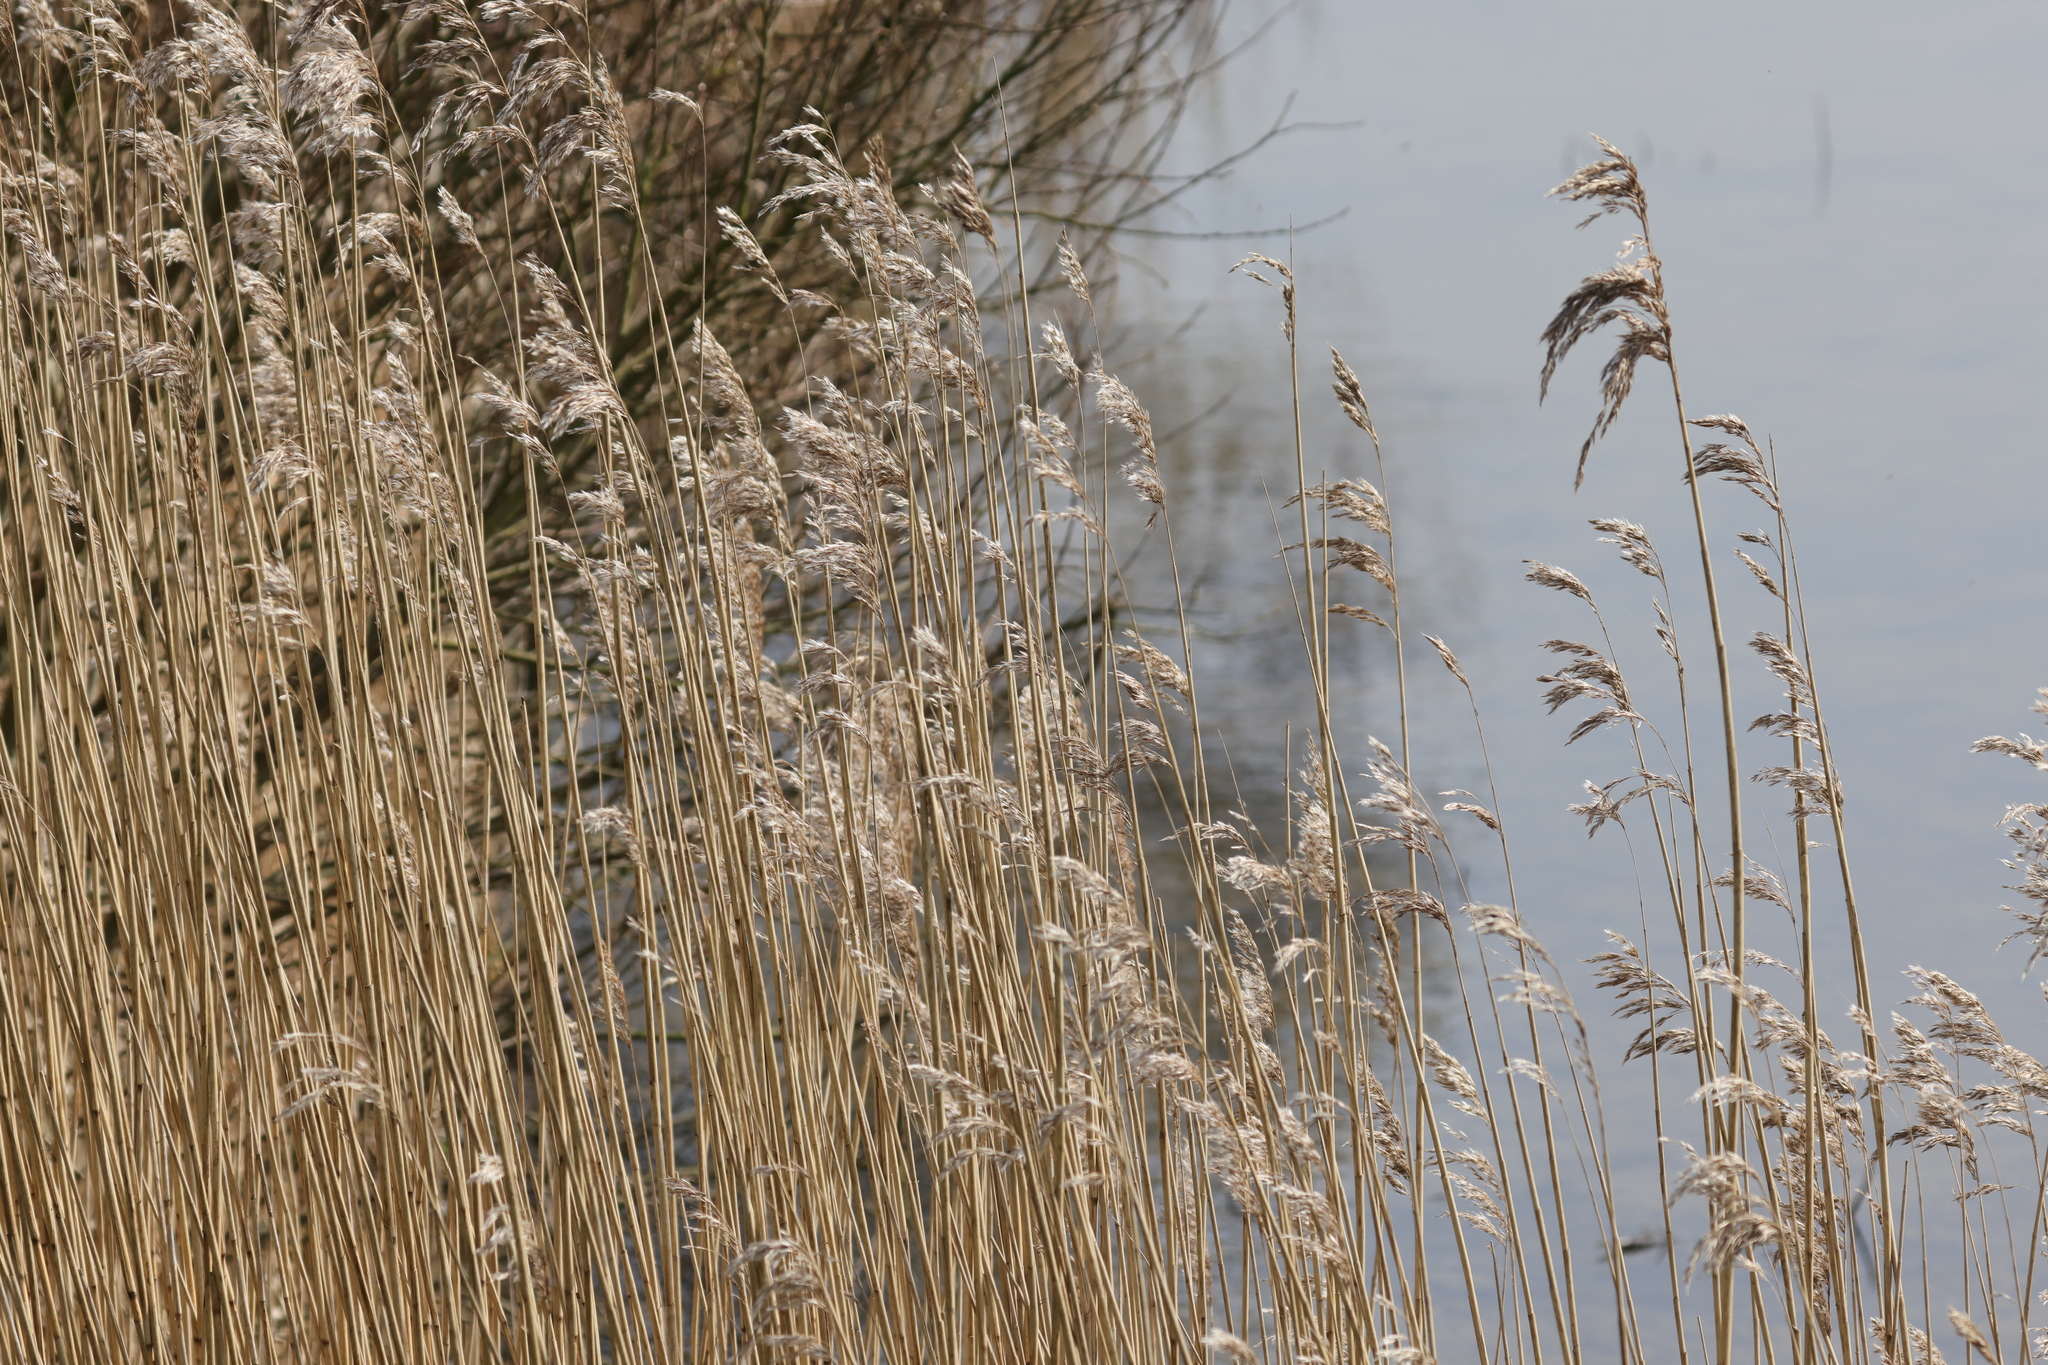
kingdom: Plantae
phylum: Tracheophyta
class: Liliopsida
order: Poales
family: Poaceae
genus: Phragmites
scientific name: Phragmites australis
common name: Common reed
